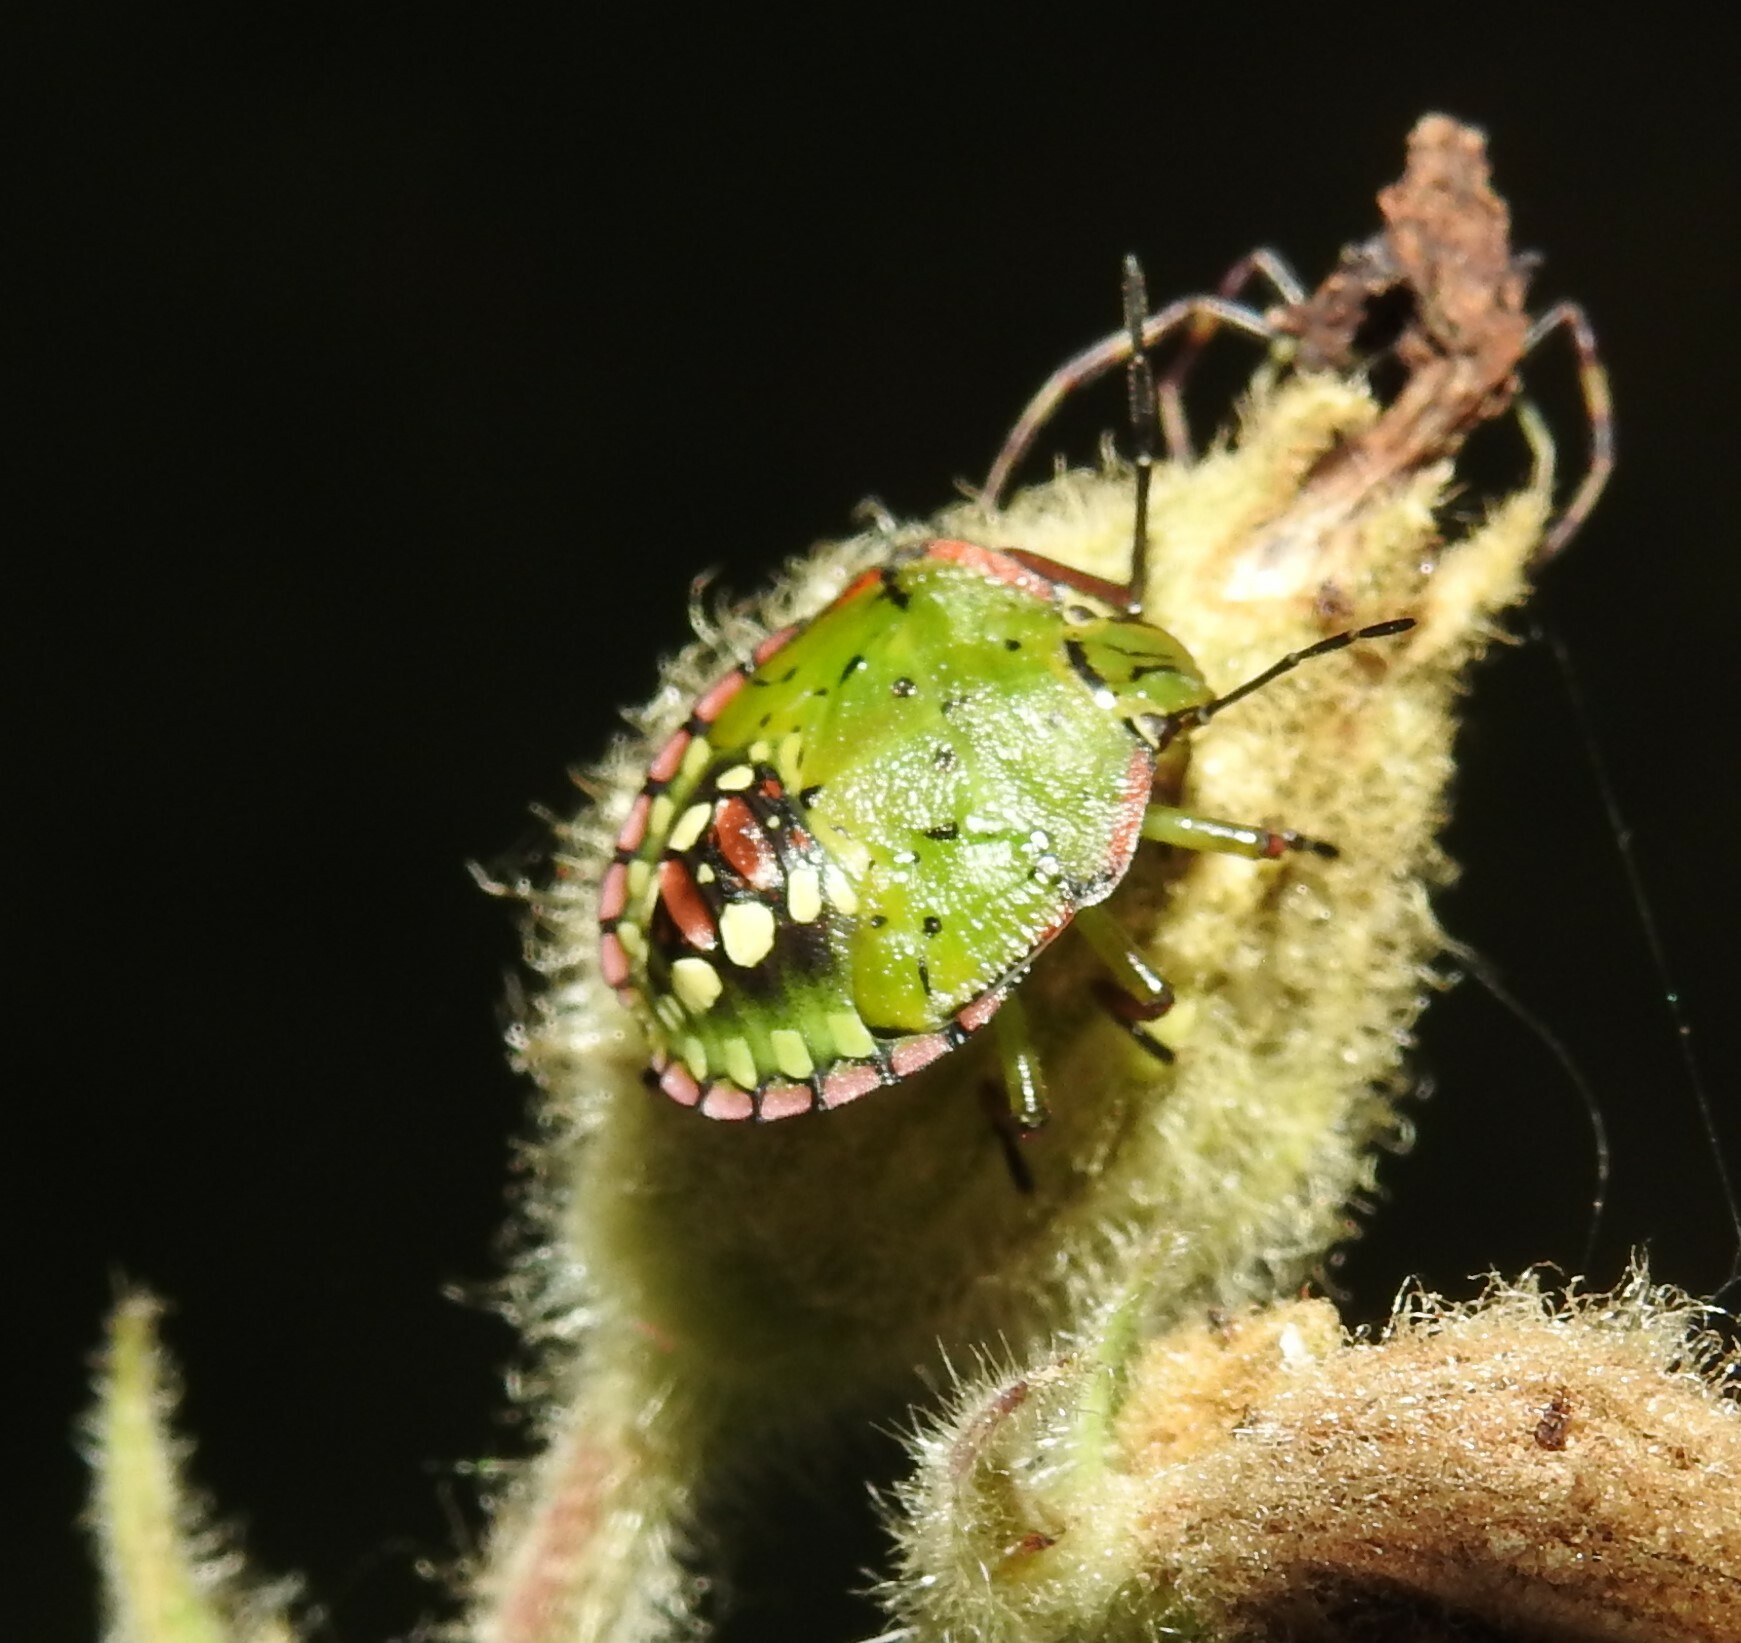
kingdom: Animalia
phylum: Arthropoda
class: Insecta
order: Hemiptera
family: Pentatomidae
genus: Nezara
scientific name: Nezara viridula
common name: Southern green stink bug
